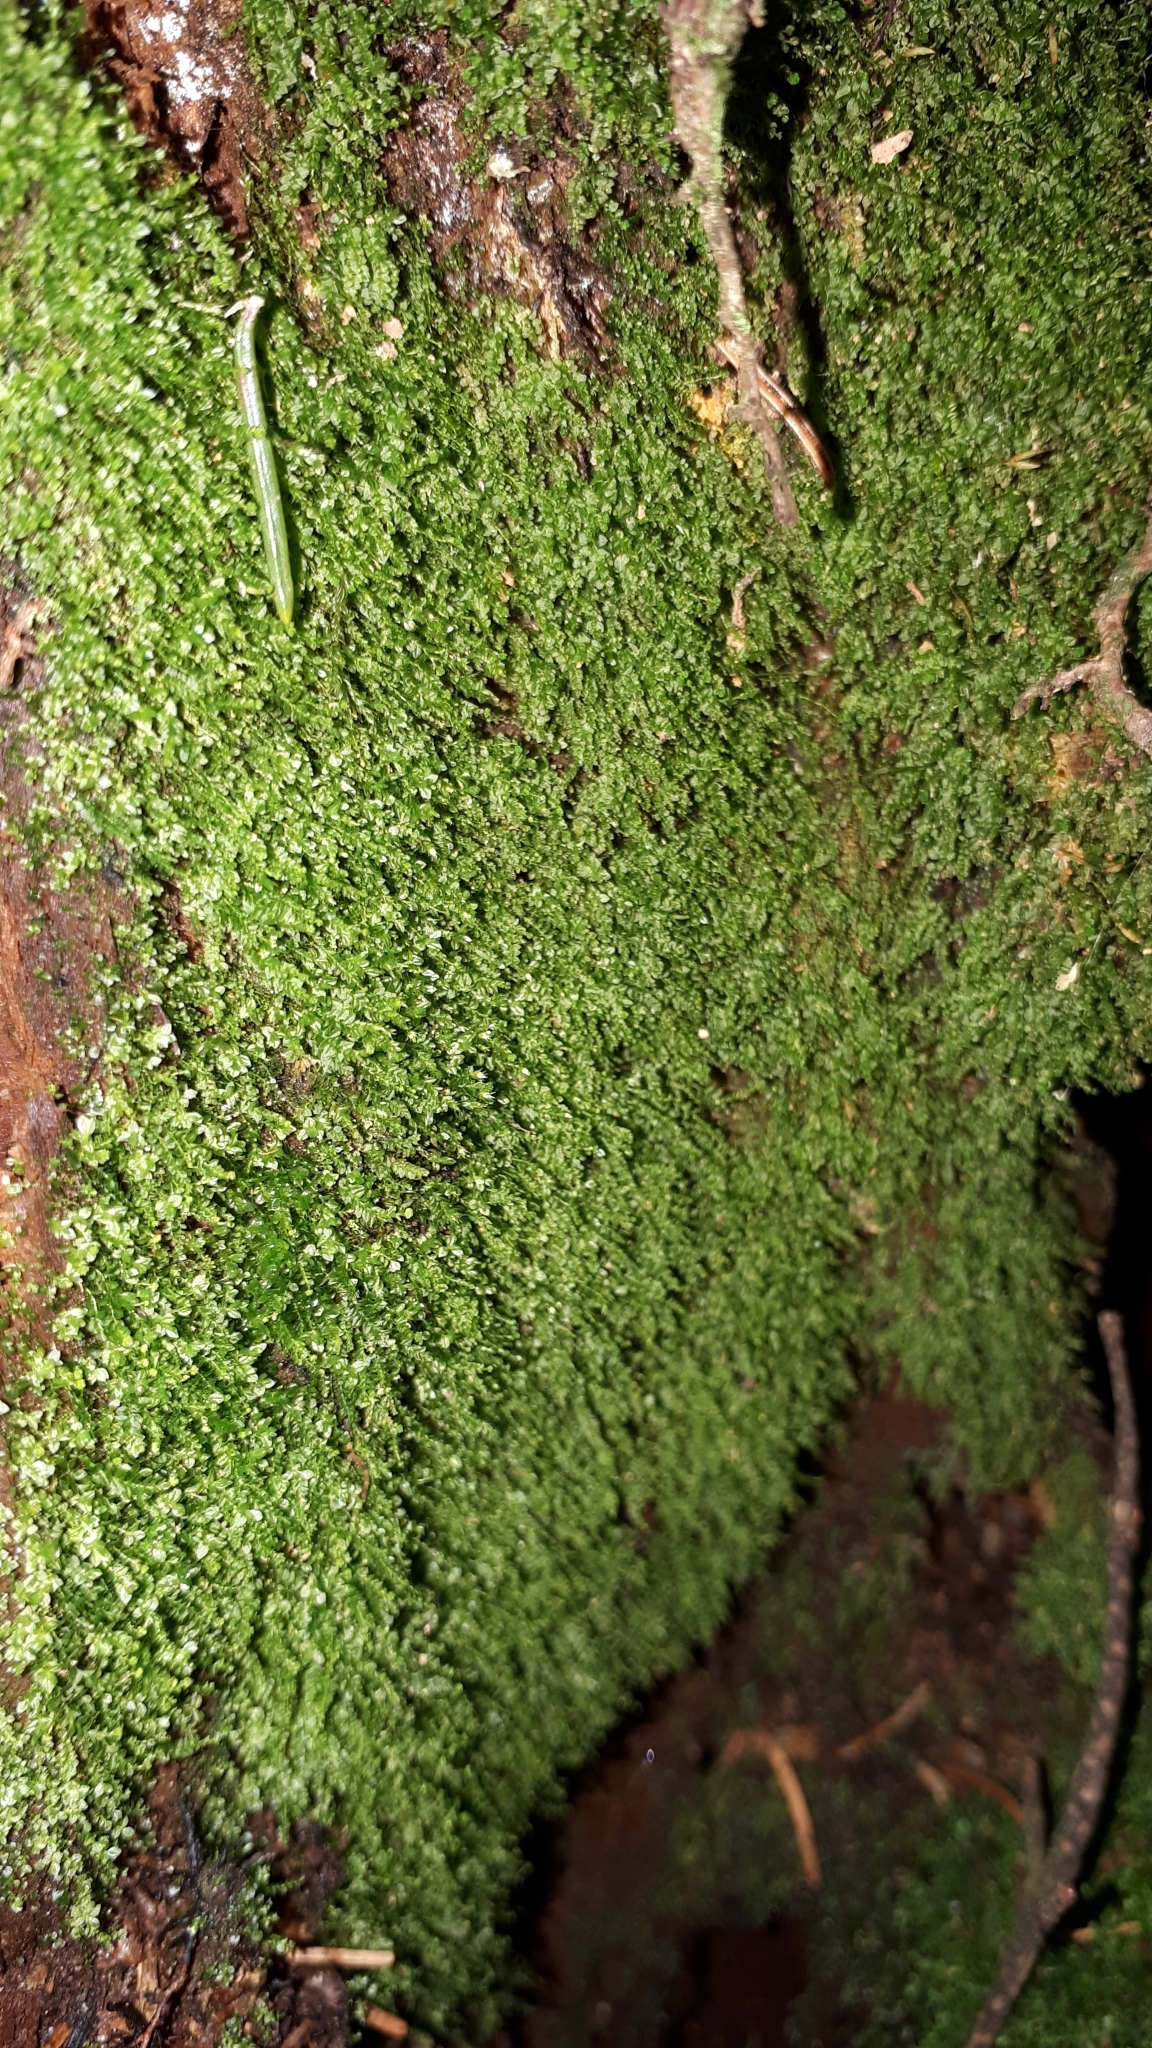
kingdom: Plantae
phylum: Bryophyta
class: Polytrichopsida
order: Tetraphidales
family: Tetraphidaceae
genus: Tetraphis
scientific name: Tetraphis pellucida
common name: Common four-toothed moss
